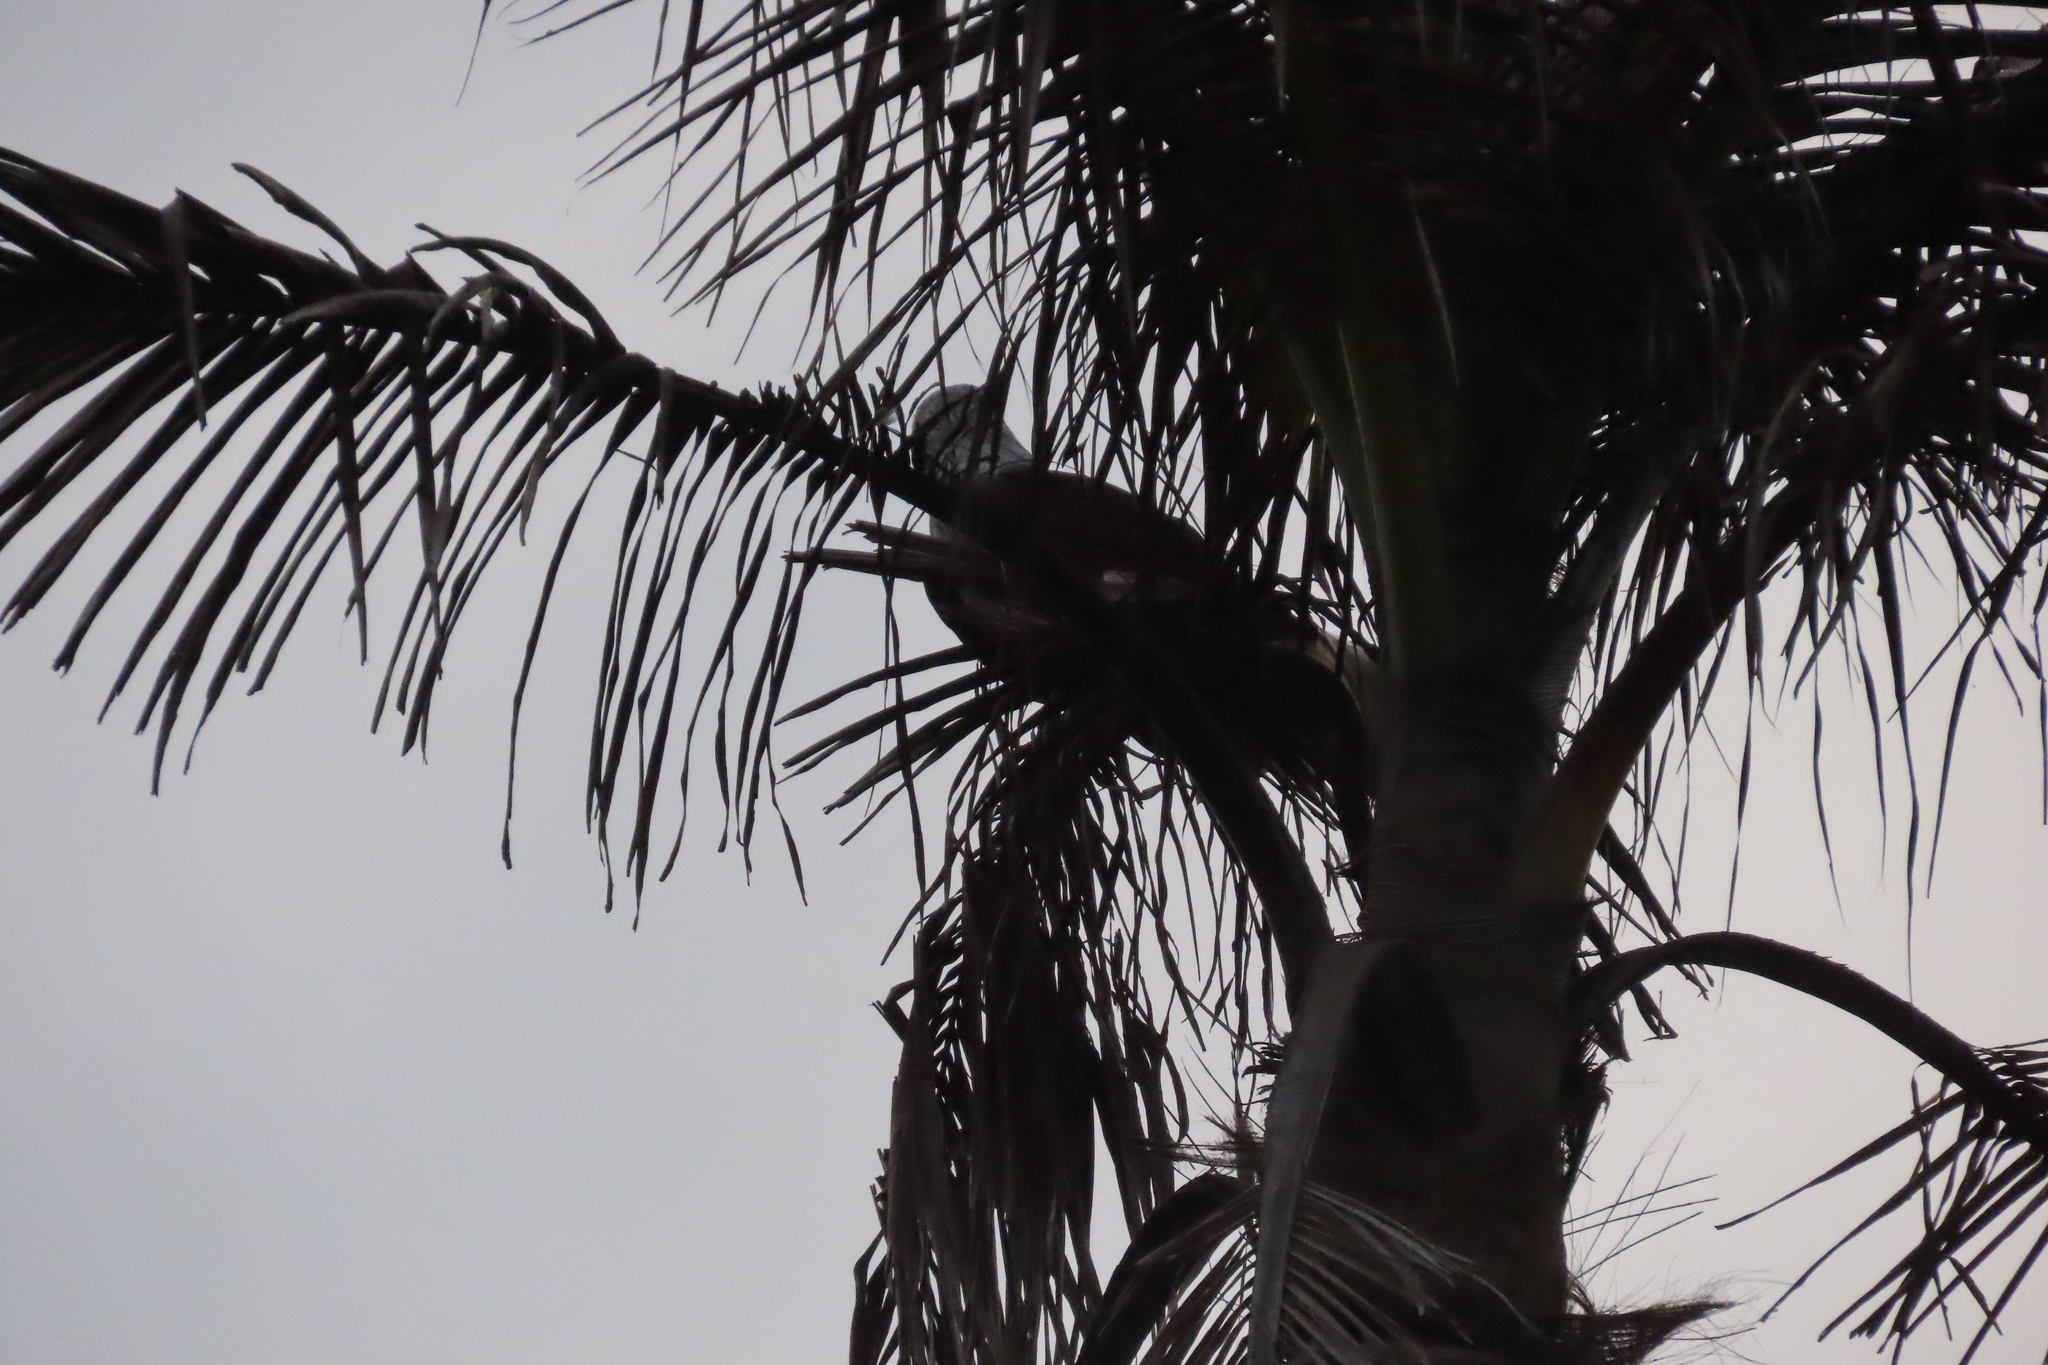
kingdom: Animalia
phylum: Chordata
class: Aves
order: Accipitriformes
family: Accipitridae
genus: Haliastur
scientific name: Haliastur indus
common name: Brahminy kite
